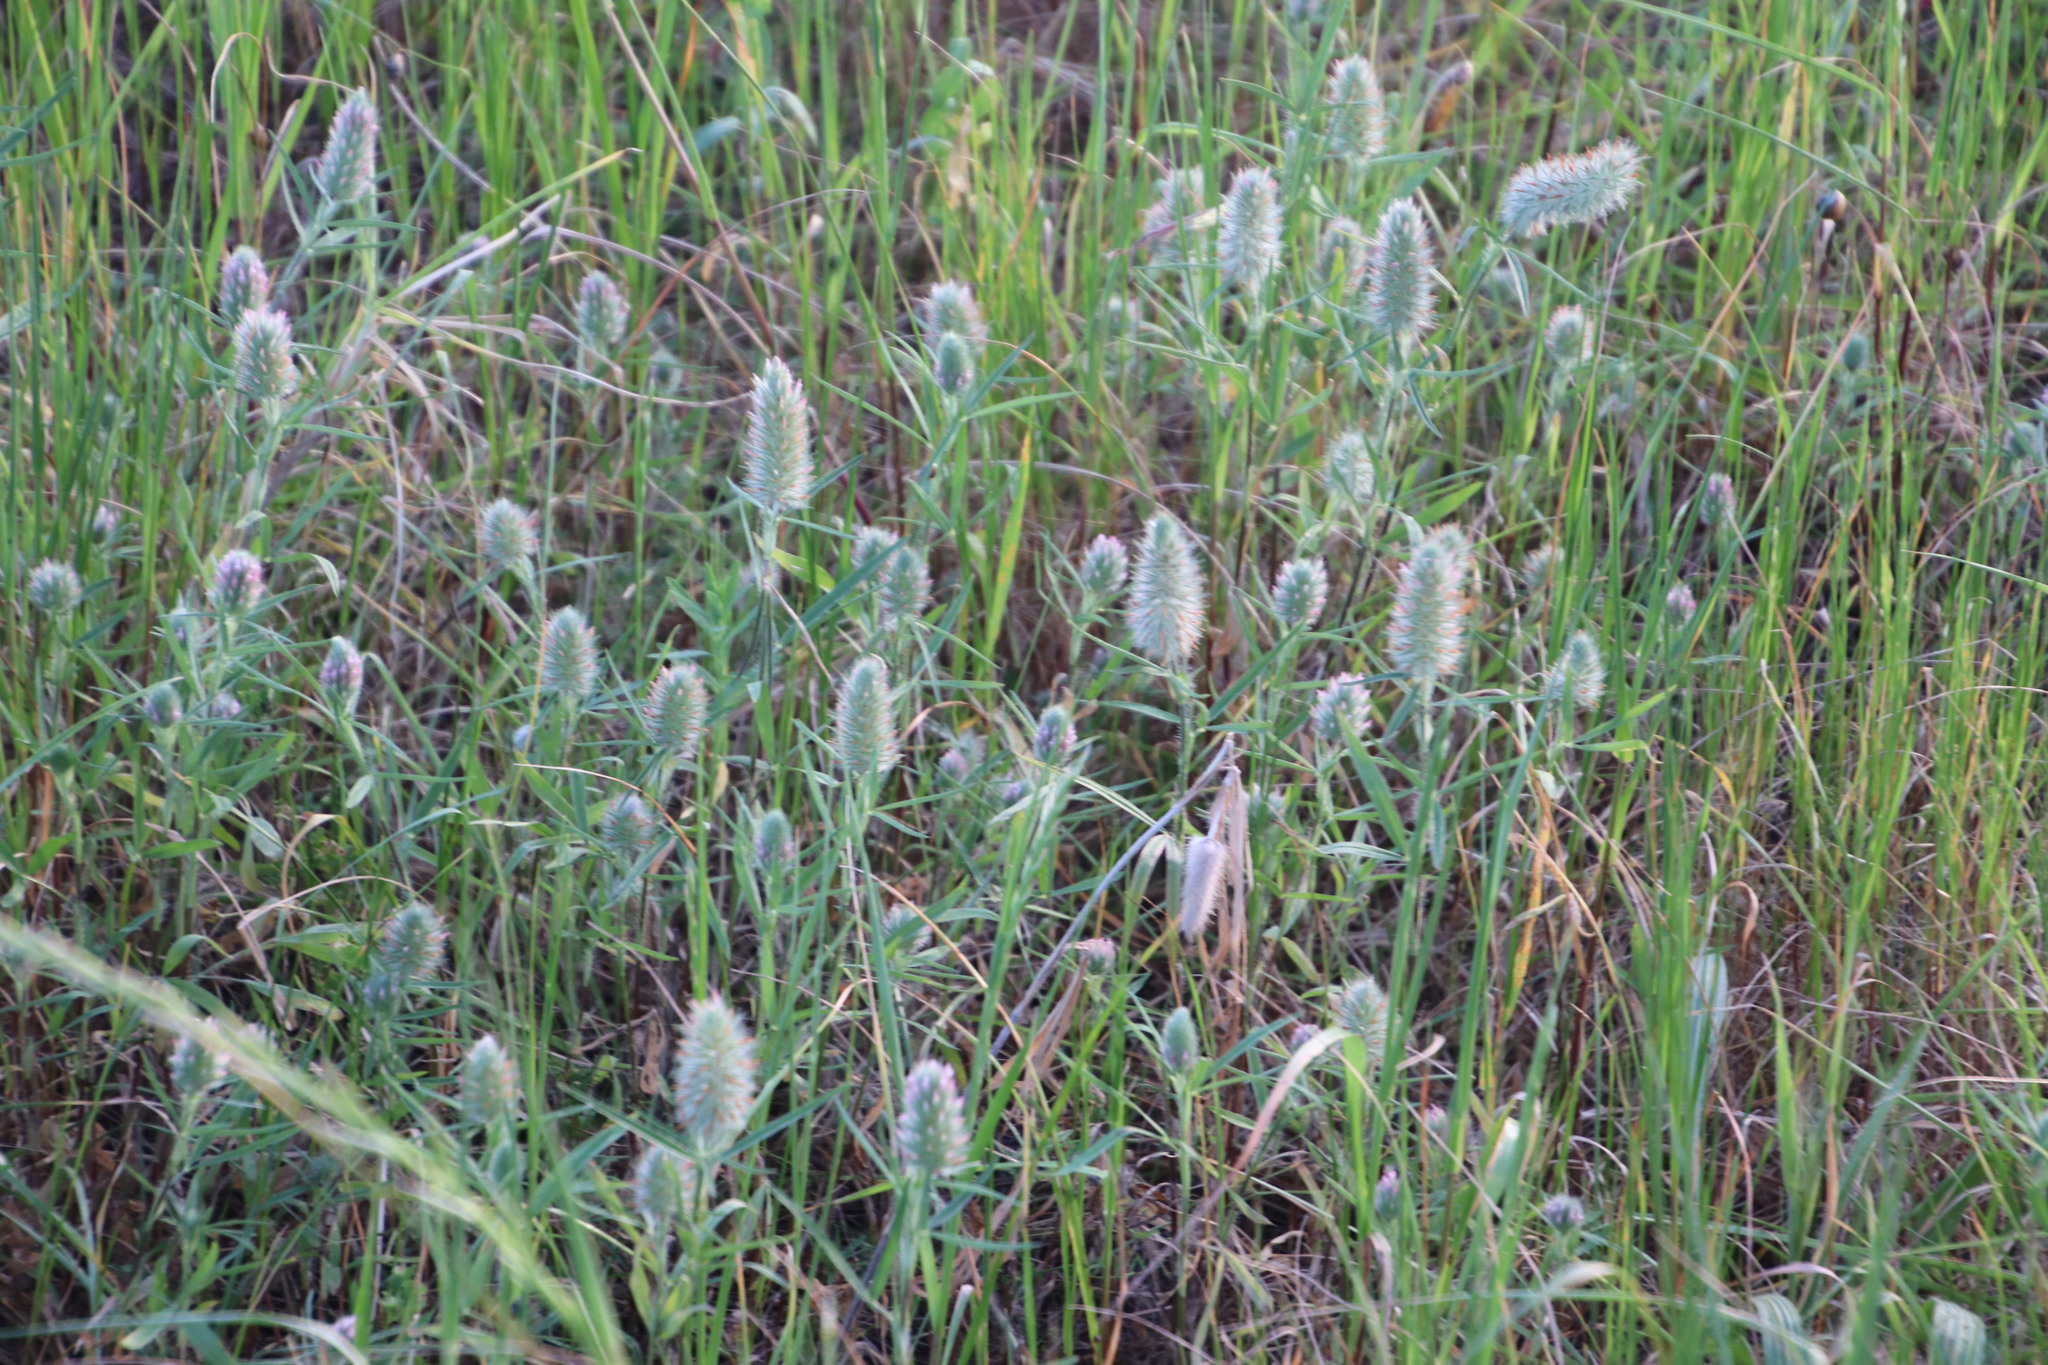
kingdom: Plantae
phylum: Tracheophyta
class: Magnoliopsida
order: Fabales
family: Fabaceae
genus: Trifolium
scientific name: Trifolium angustifolium
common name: Narrow clover
